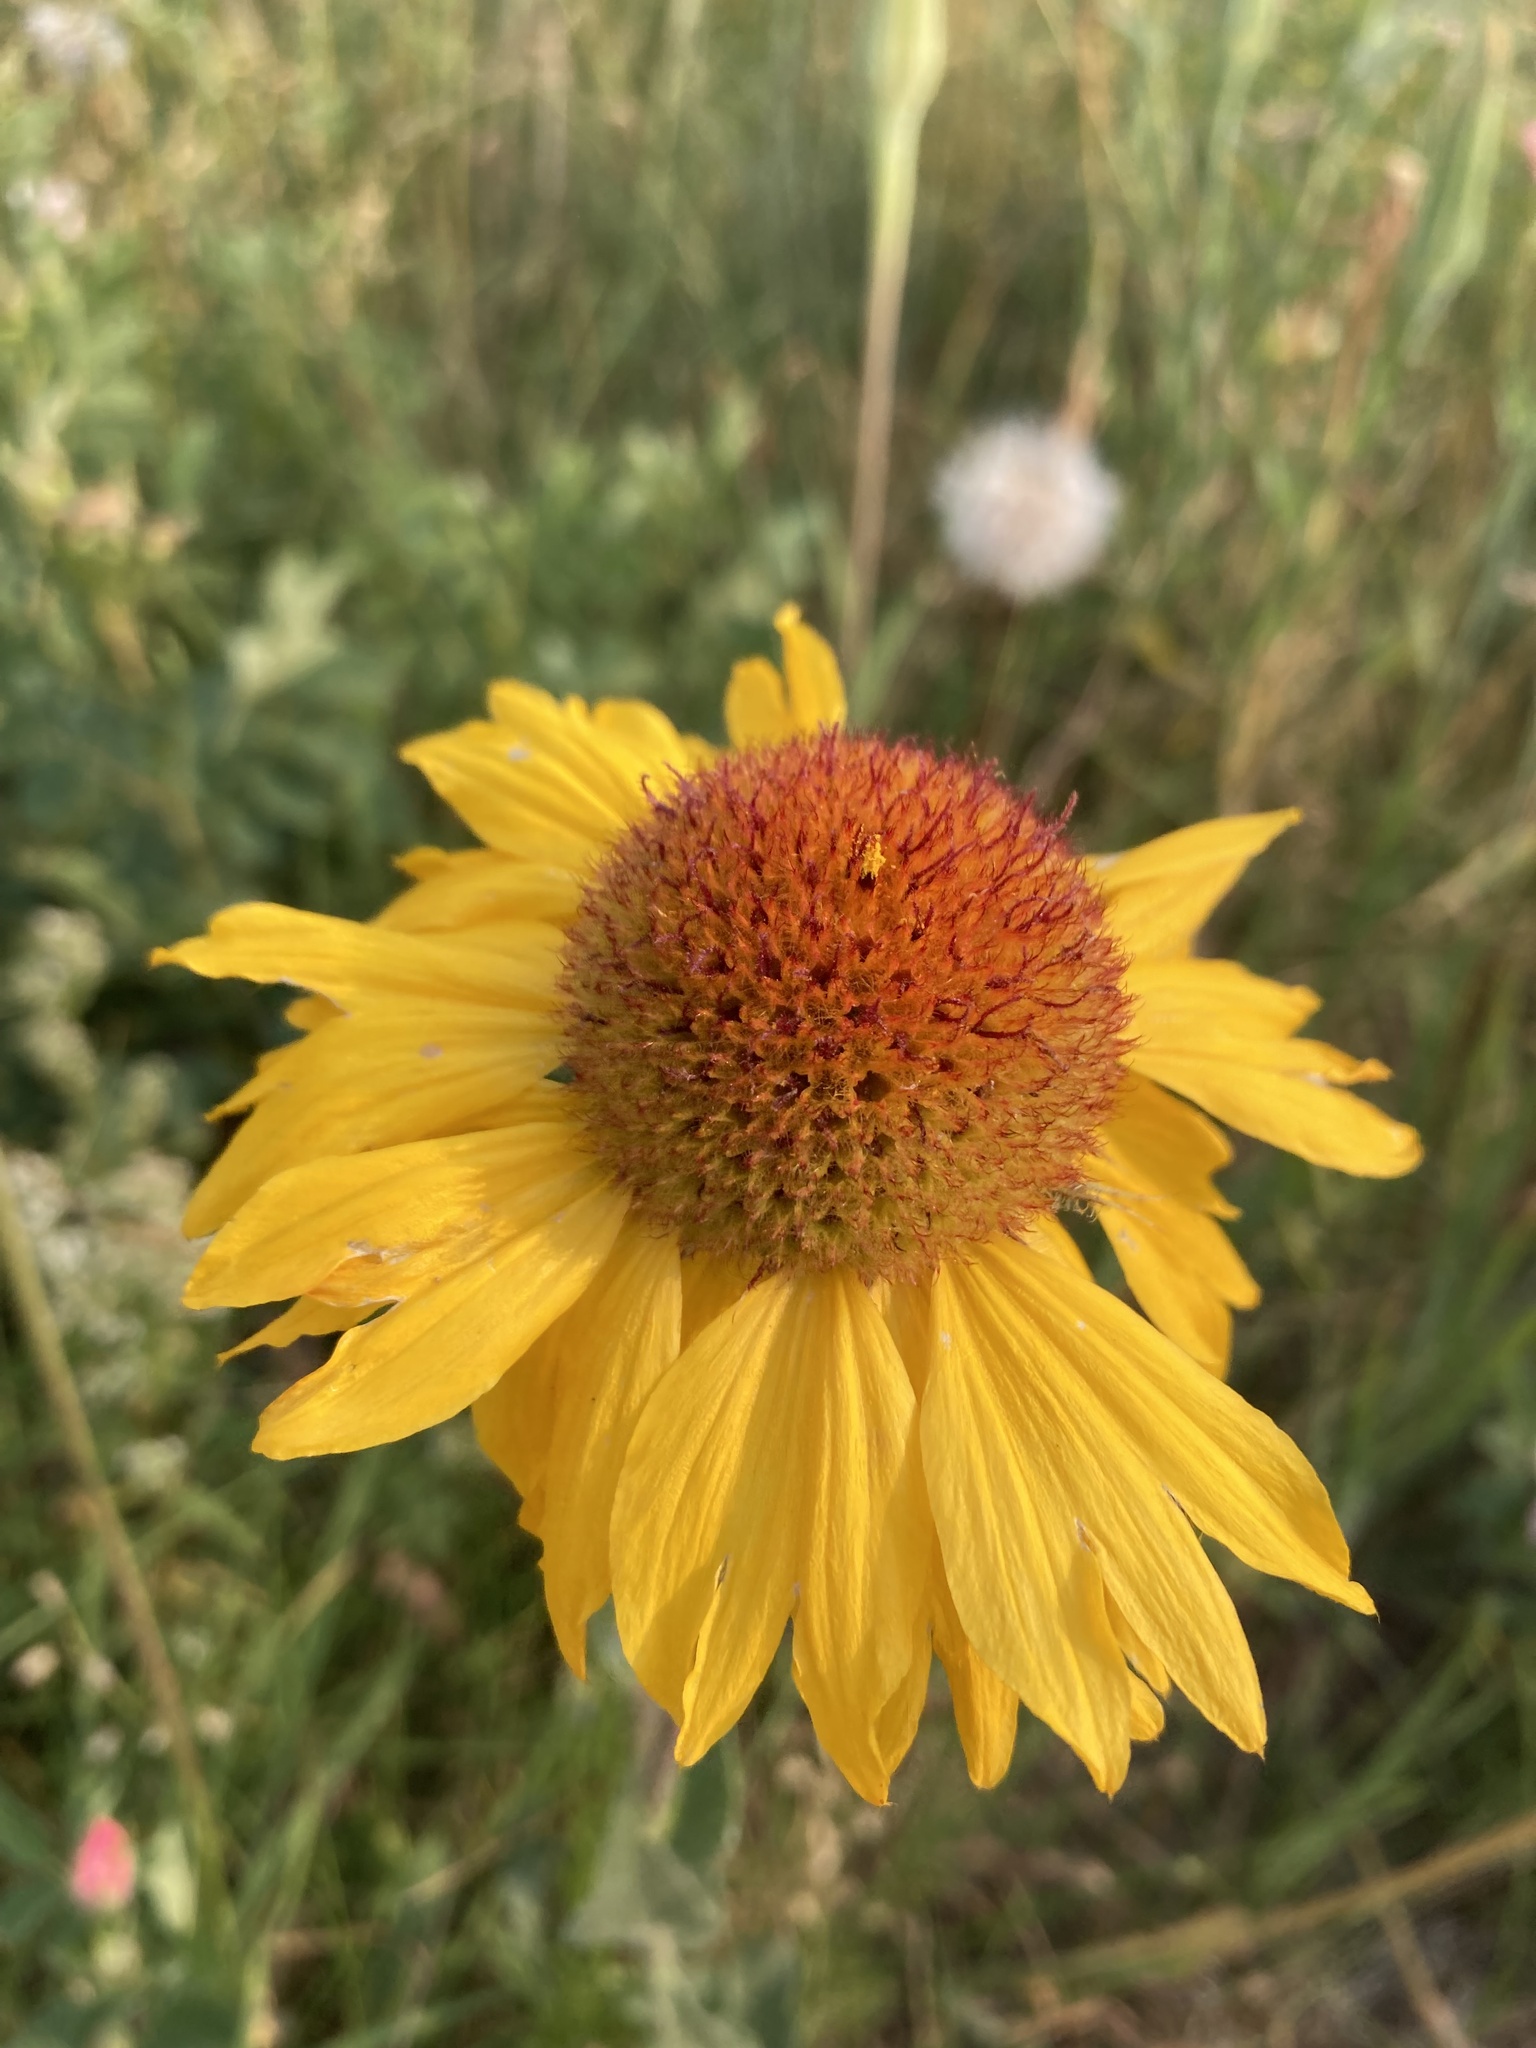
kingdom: Plantae
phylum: Tracheophyta
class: Magnoliopsida
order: Asterales
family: Asteraceae
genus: Gaillardia
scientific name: Gaillardia aristata
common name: Blanket-flower
